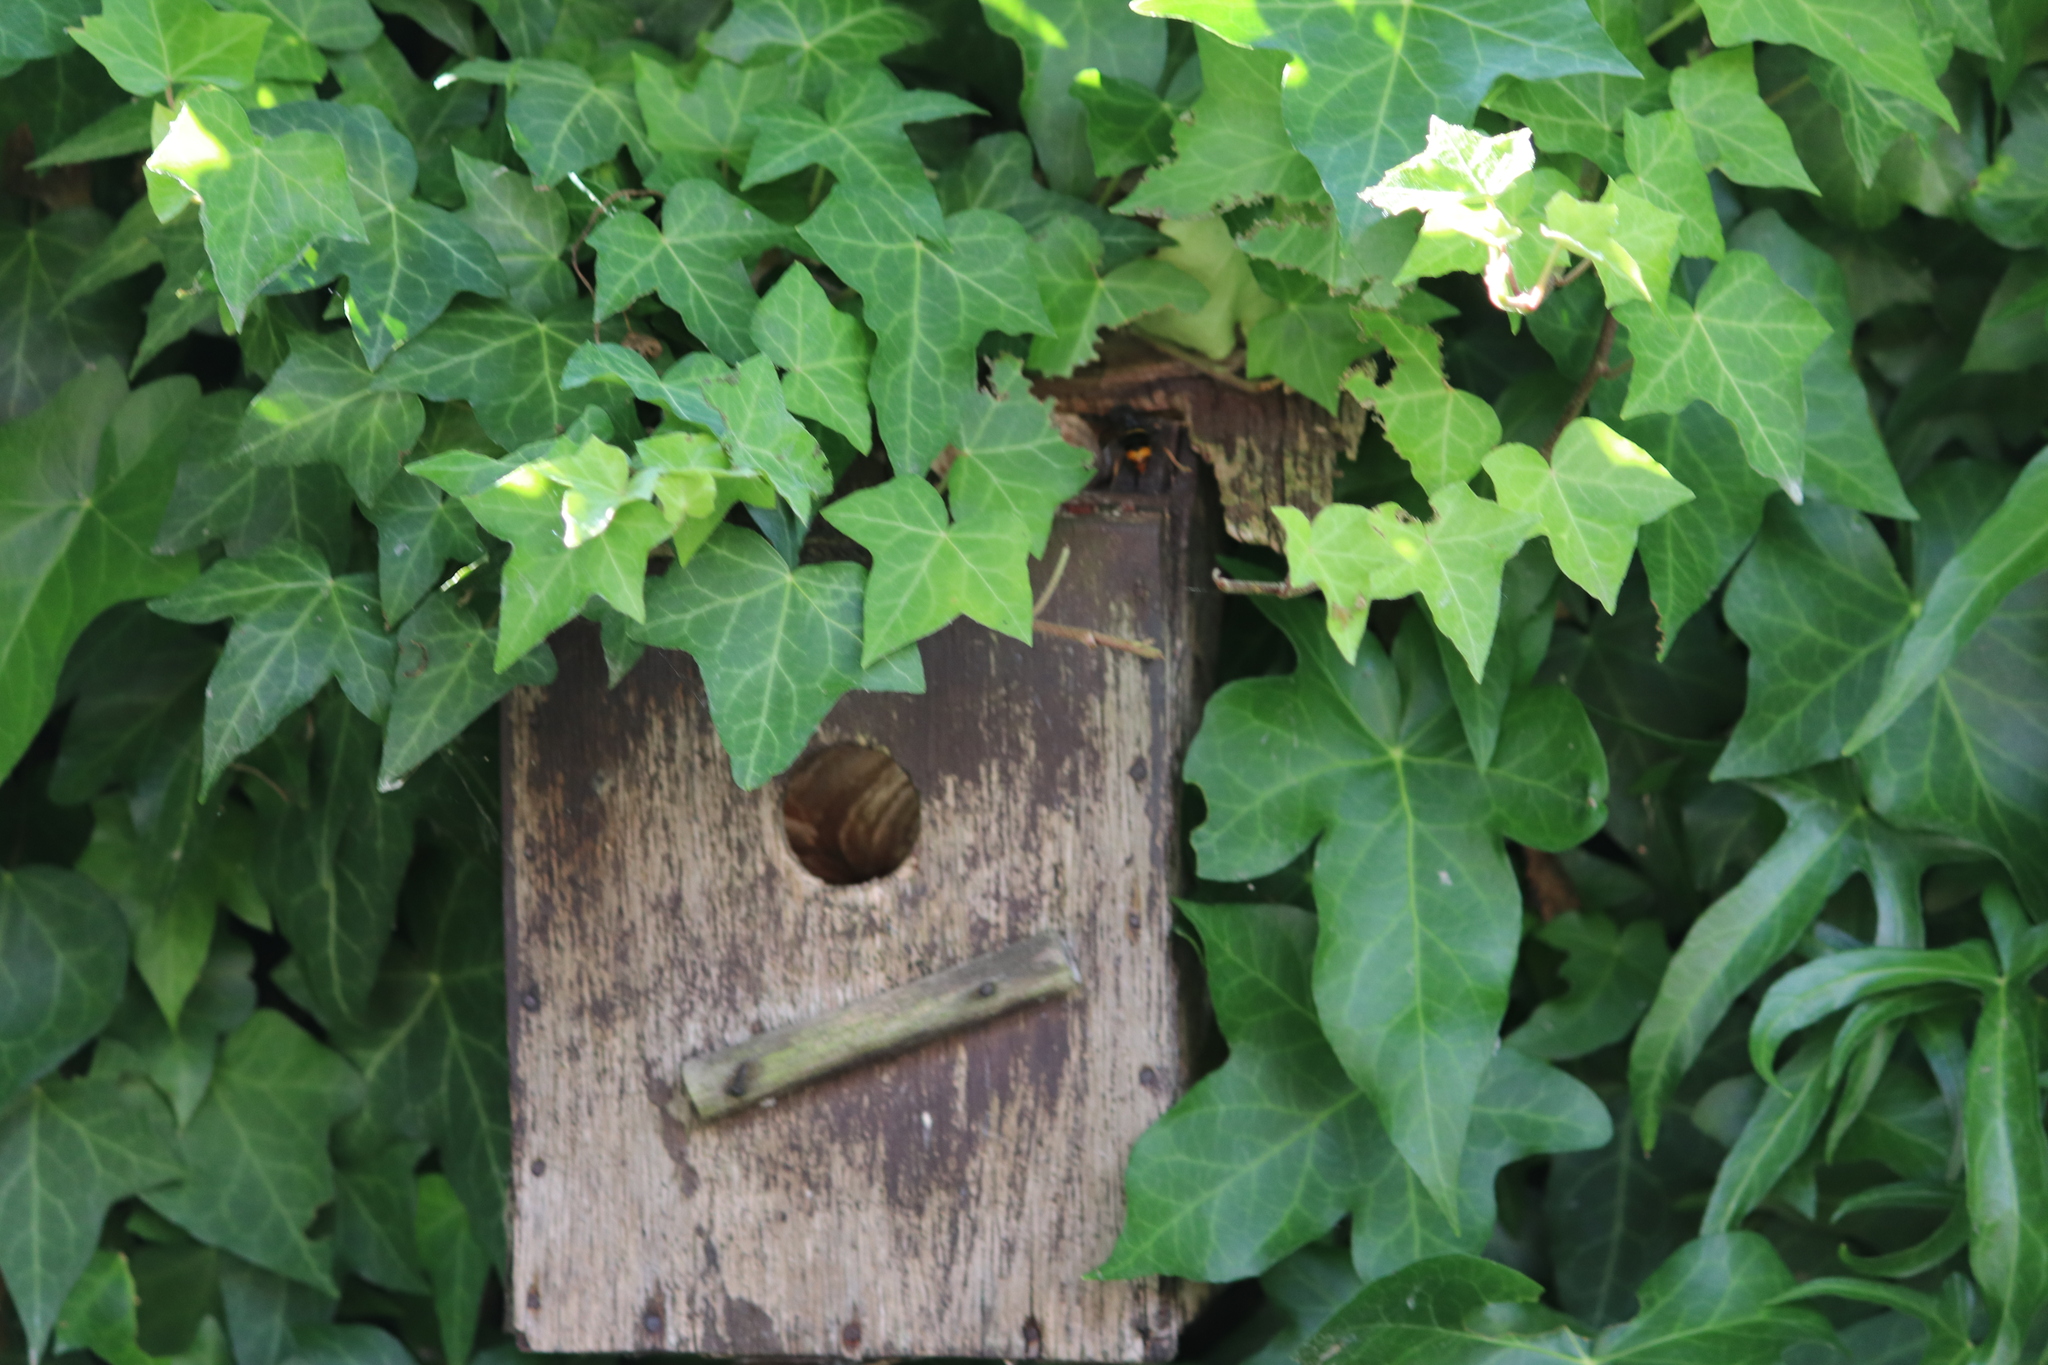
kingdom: Animalia
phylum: Arthropoda
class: Insecta
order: Hymenoptera
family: Vespidae
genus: Vespa
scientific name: Vespa velutina
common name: Asian hornet
